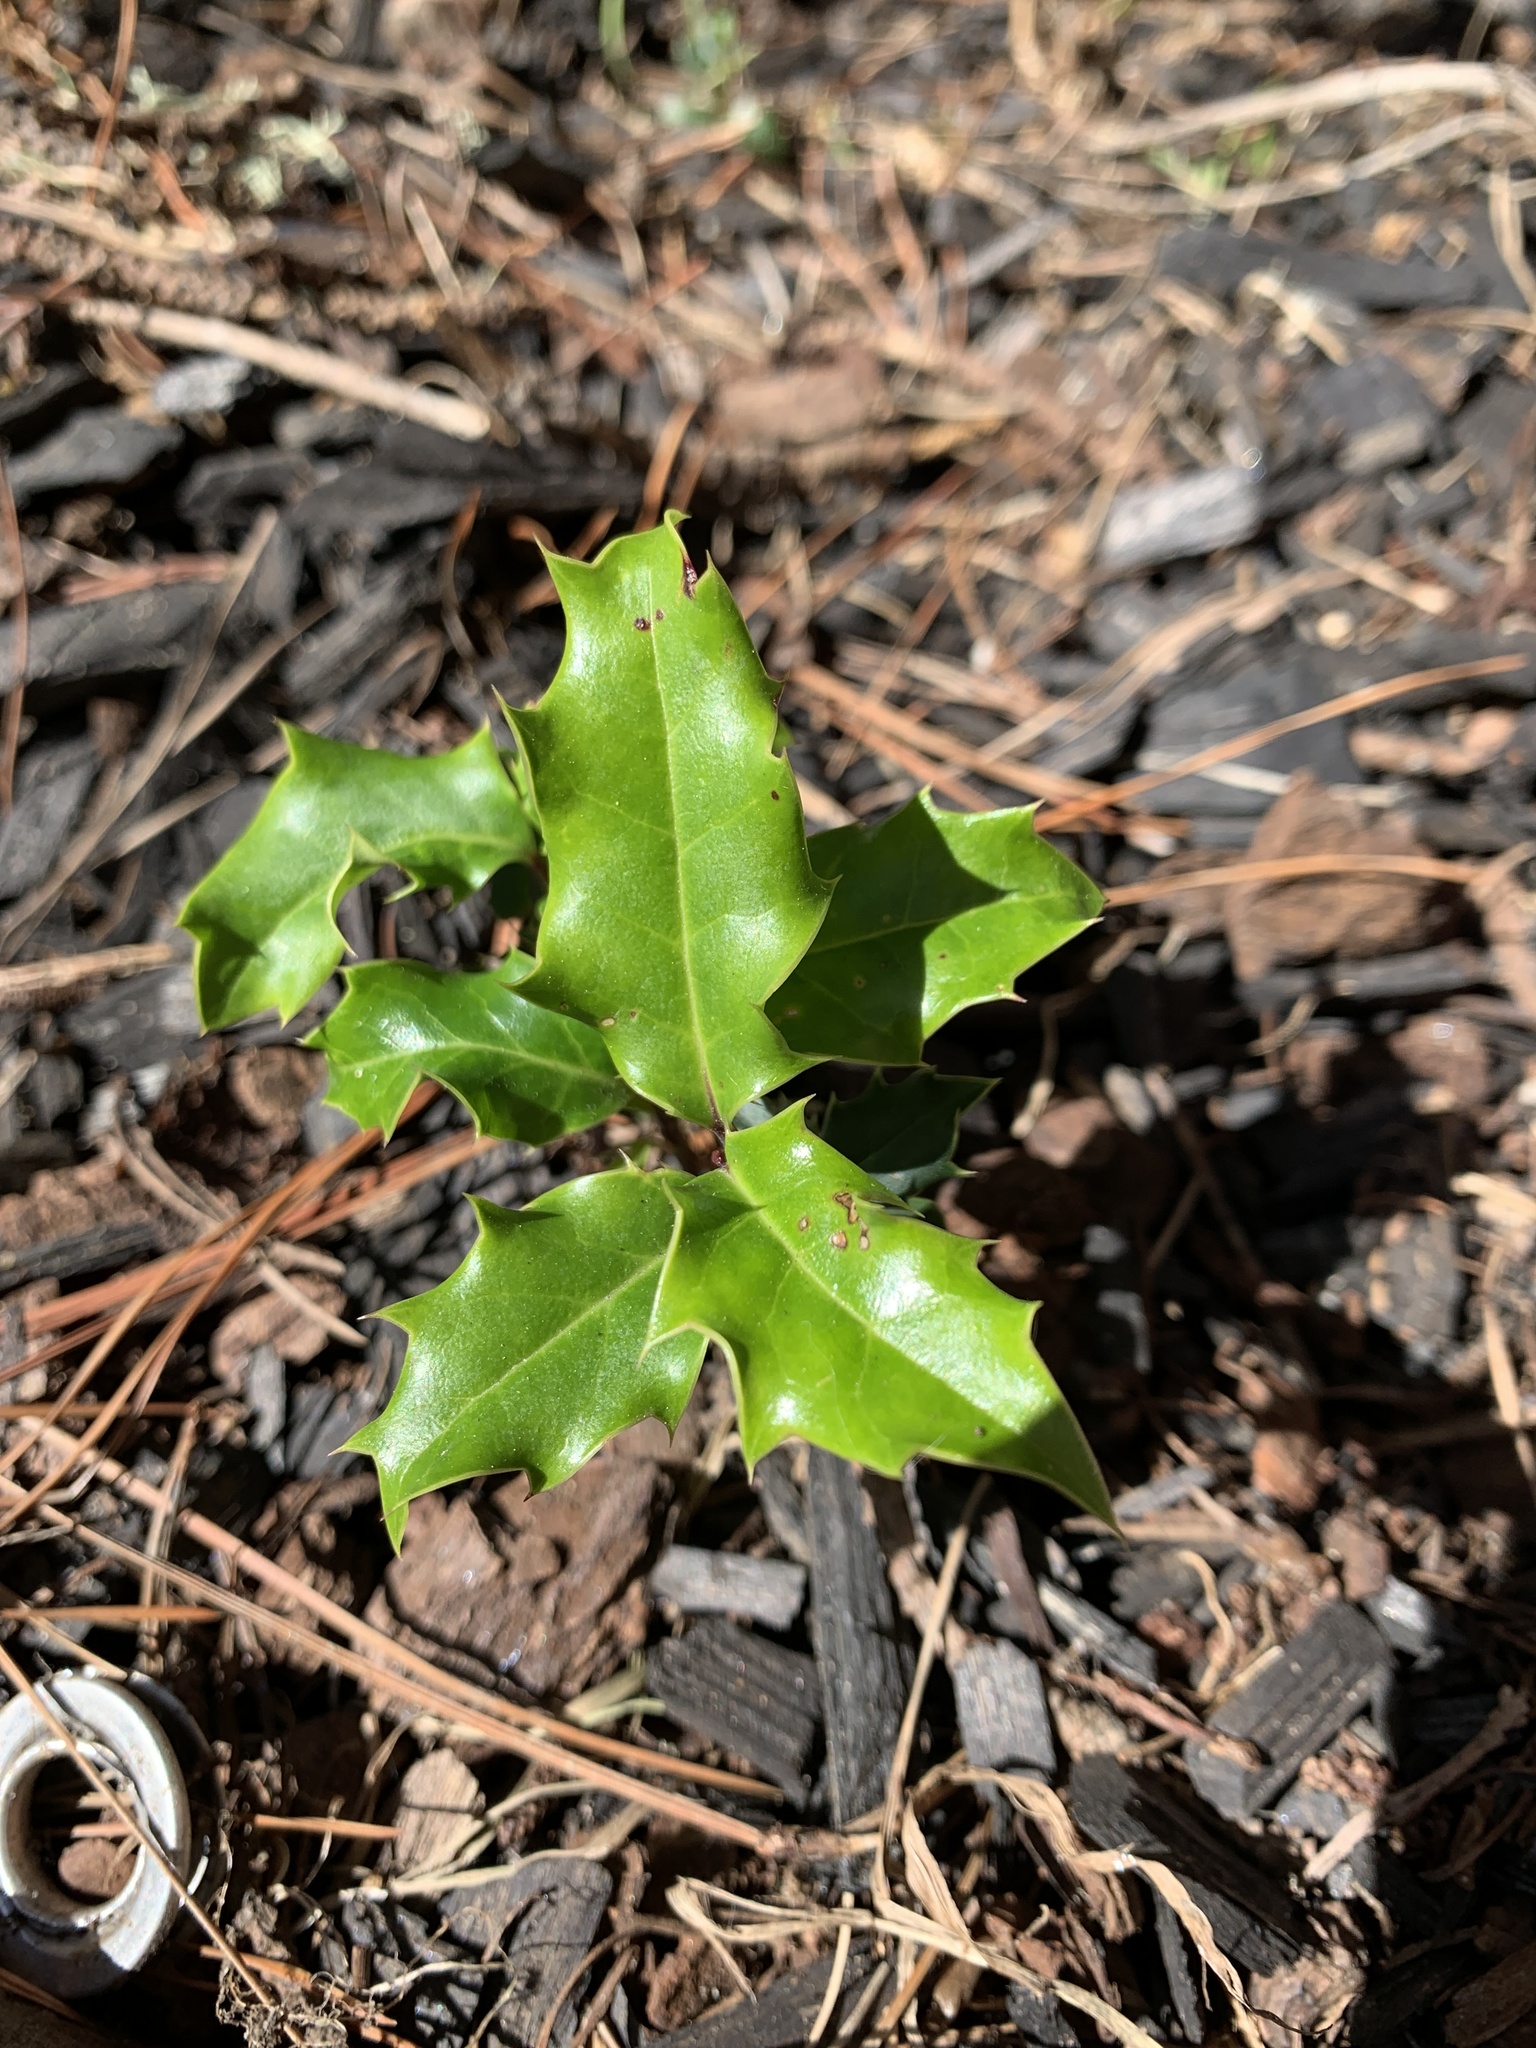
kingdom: Plantae
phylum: Tracheophyta
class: Magnoliopsida
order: Aquifoliales
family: Aquifoliaceae
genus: Ilex
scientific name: Ilex aquifolium
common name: English holly
